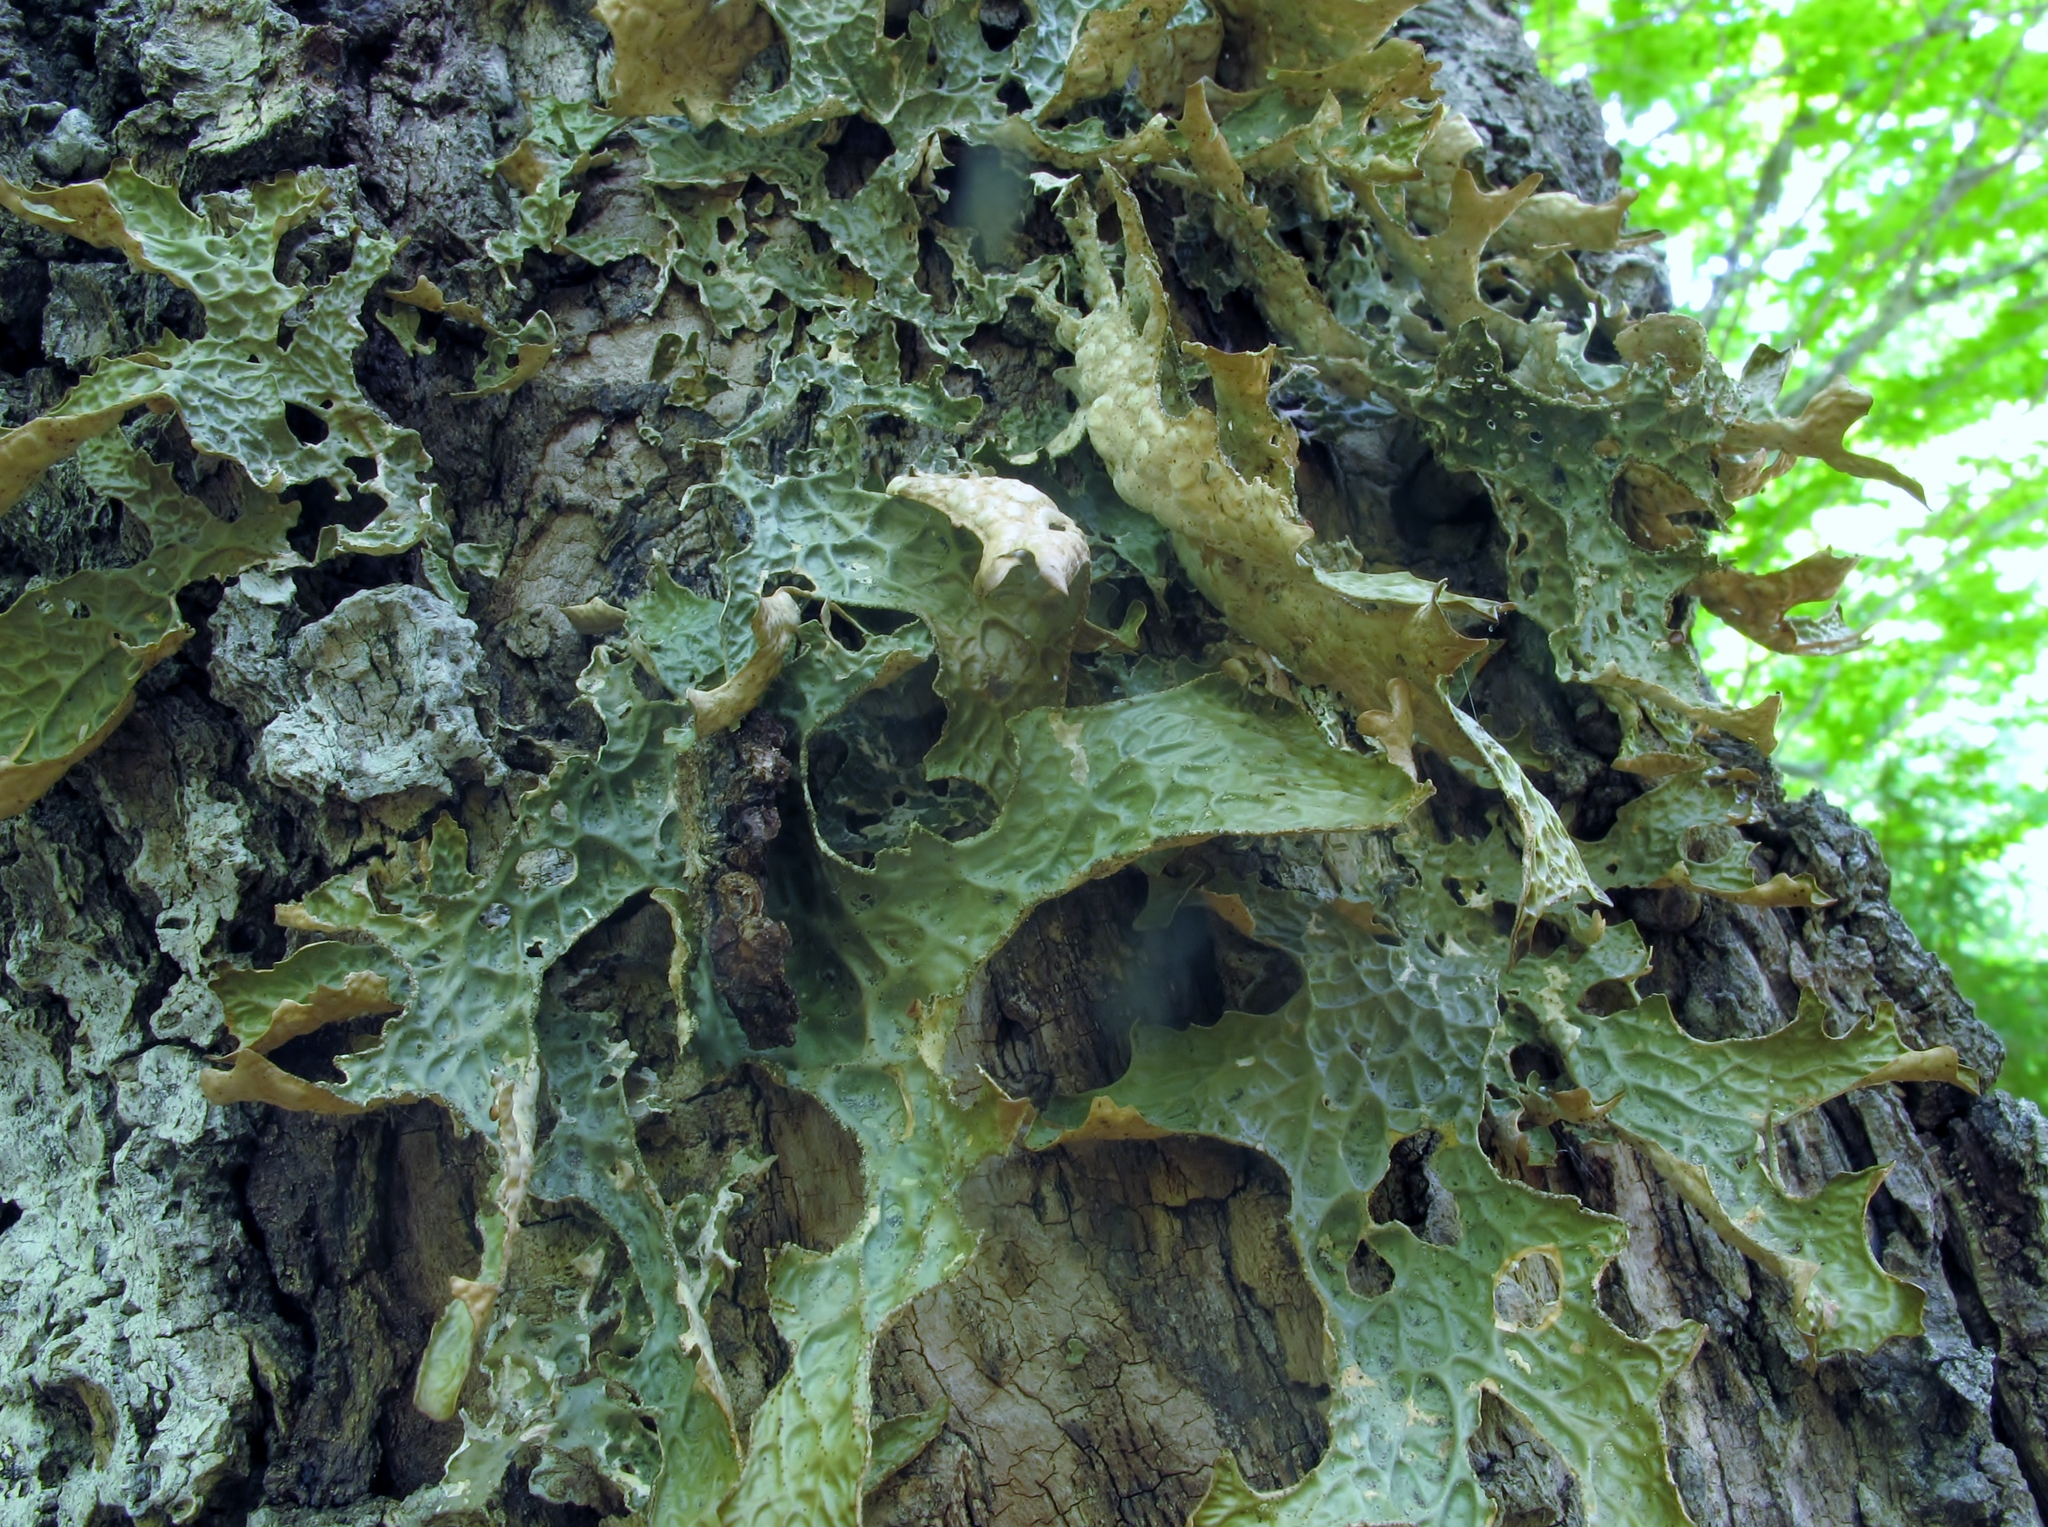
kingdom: Fungi
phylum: Ascomycota
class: Lecanoromycetes
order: Peltigerales
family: Lobariaceae
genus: Lobaria
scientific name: Lobaria pulmonaria
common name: Lungwort
